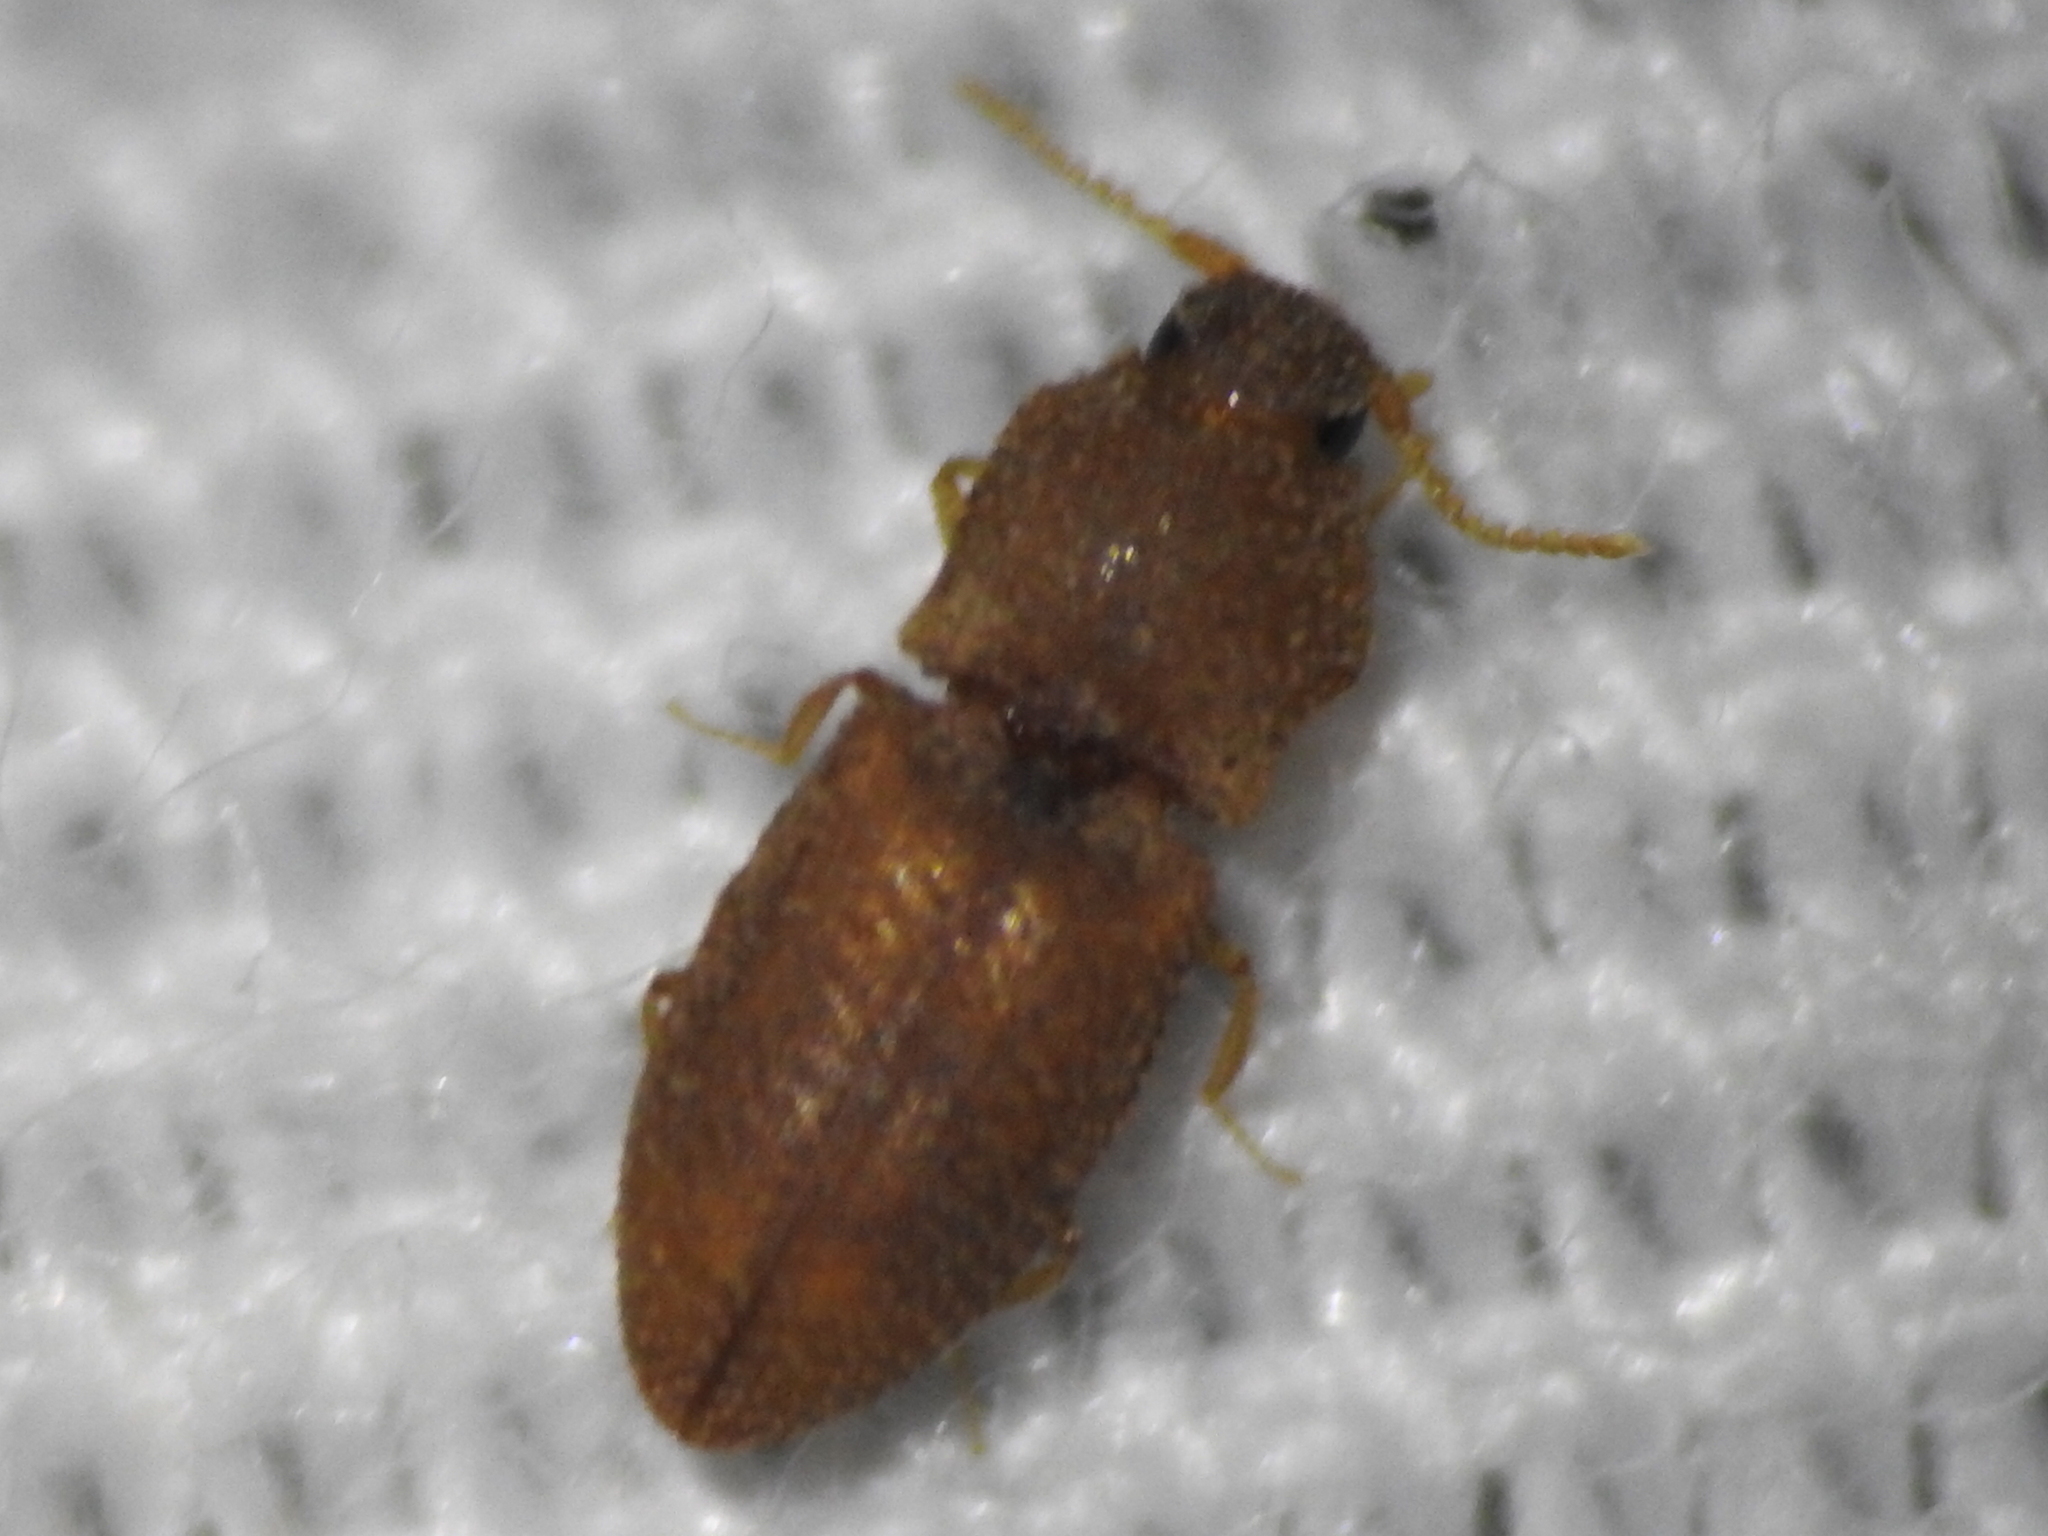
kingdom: Animalia
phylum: Arthropoda
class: Insecta
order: Coleoptera
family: Elateridae
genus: Rismethus
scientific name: Rismethus scobinula
